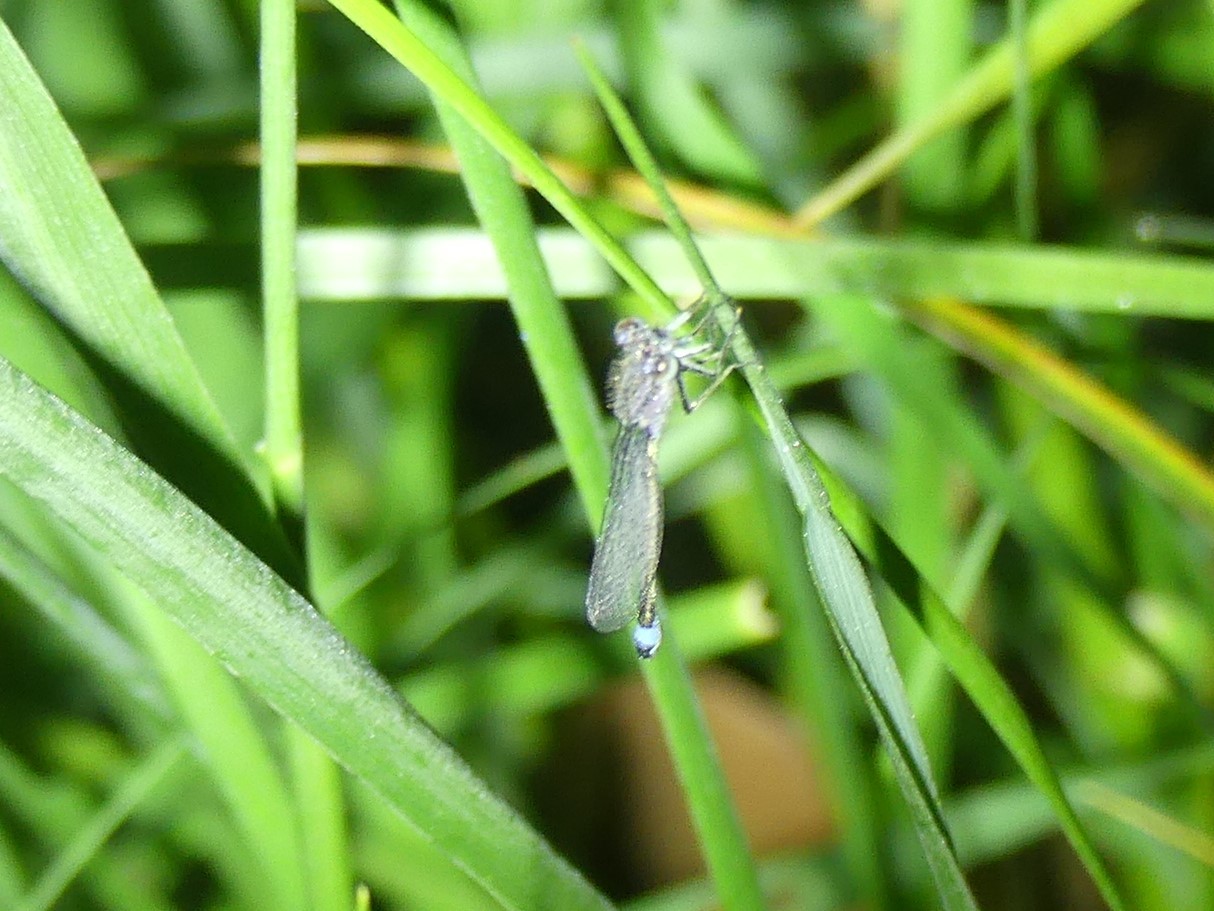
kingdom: Animalia
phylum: Arthropoda
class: Insecta
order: Odonata
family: Coenagrionidae
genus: Ischnura
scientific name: Ischnura elegans
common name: Blue-tailed damselfly
